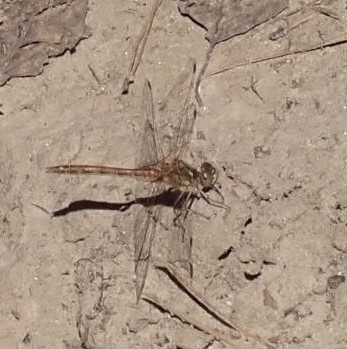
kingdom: Animalia
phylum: Arthropoda
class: Insecta
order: Odonata
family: Libellulidae
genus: Sympetrum
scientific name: Sympetrum vulgatum
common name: Vagrant darter
